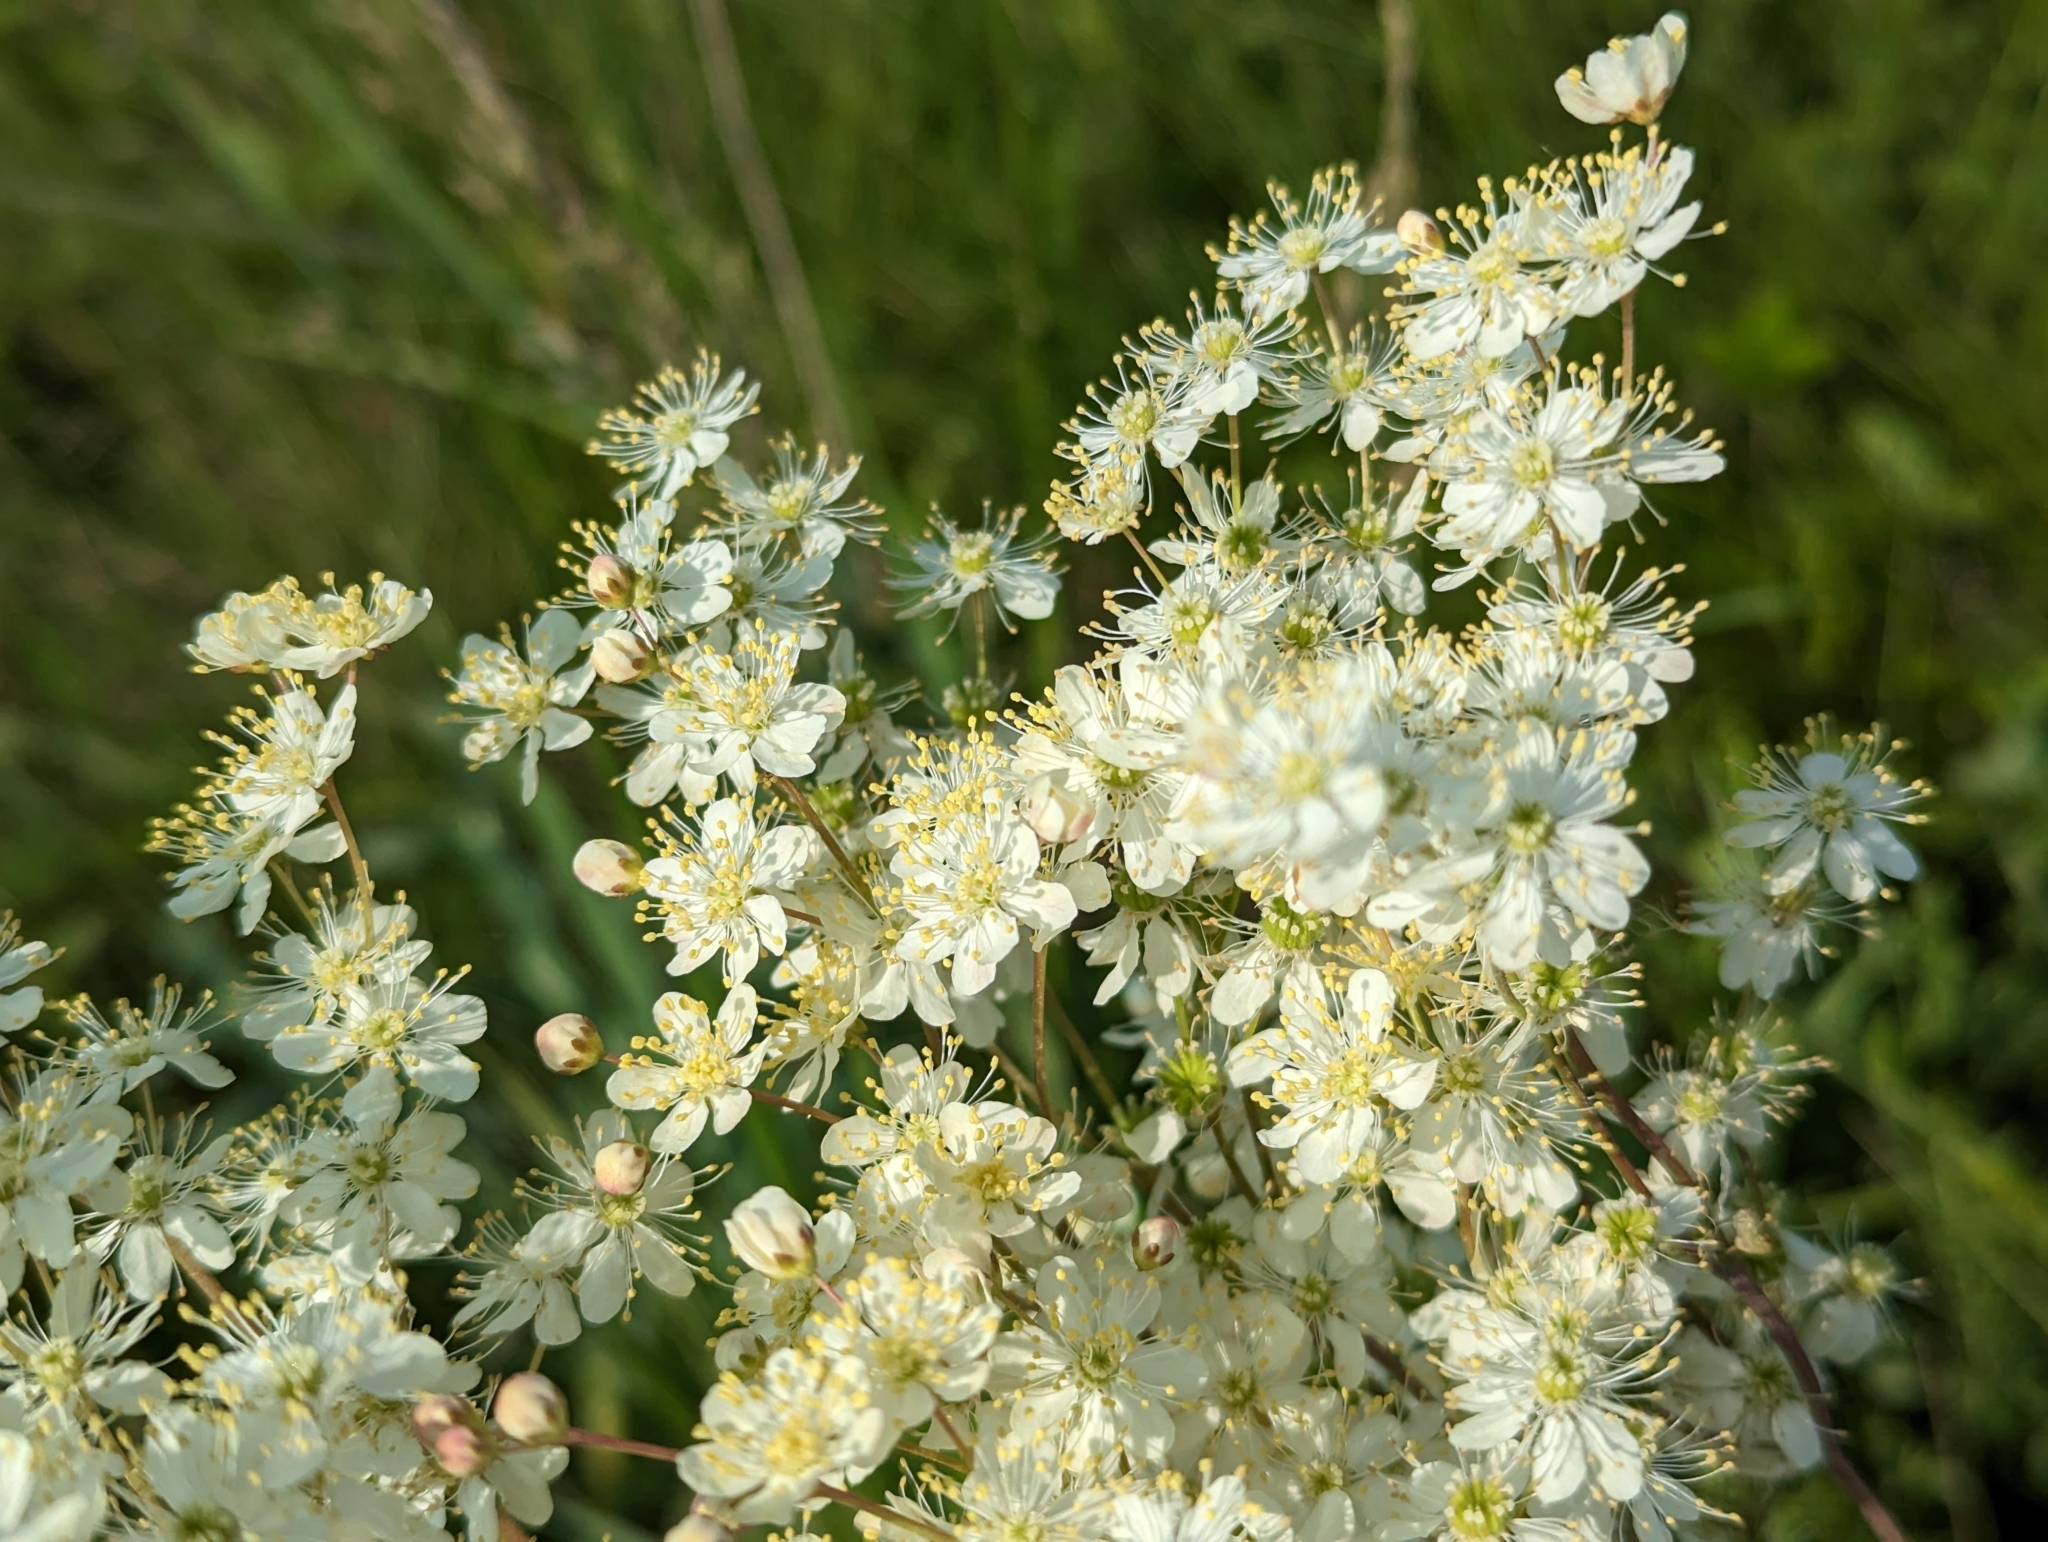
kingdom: Plantae
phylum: Tracheophyta
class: Magnoliopsida
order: Rosales
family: Rosaceae
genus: Filipendula
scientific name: Filipendula vulgaris
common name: Dropwort
